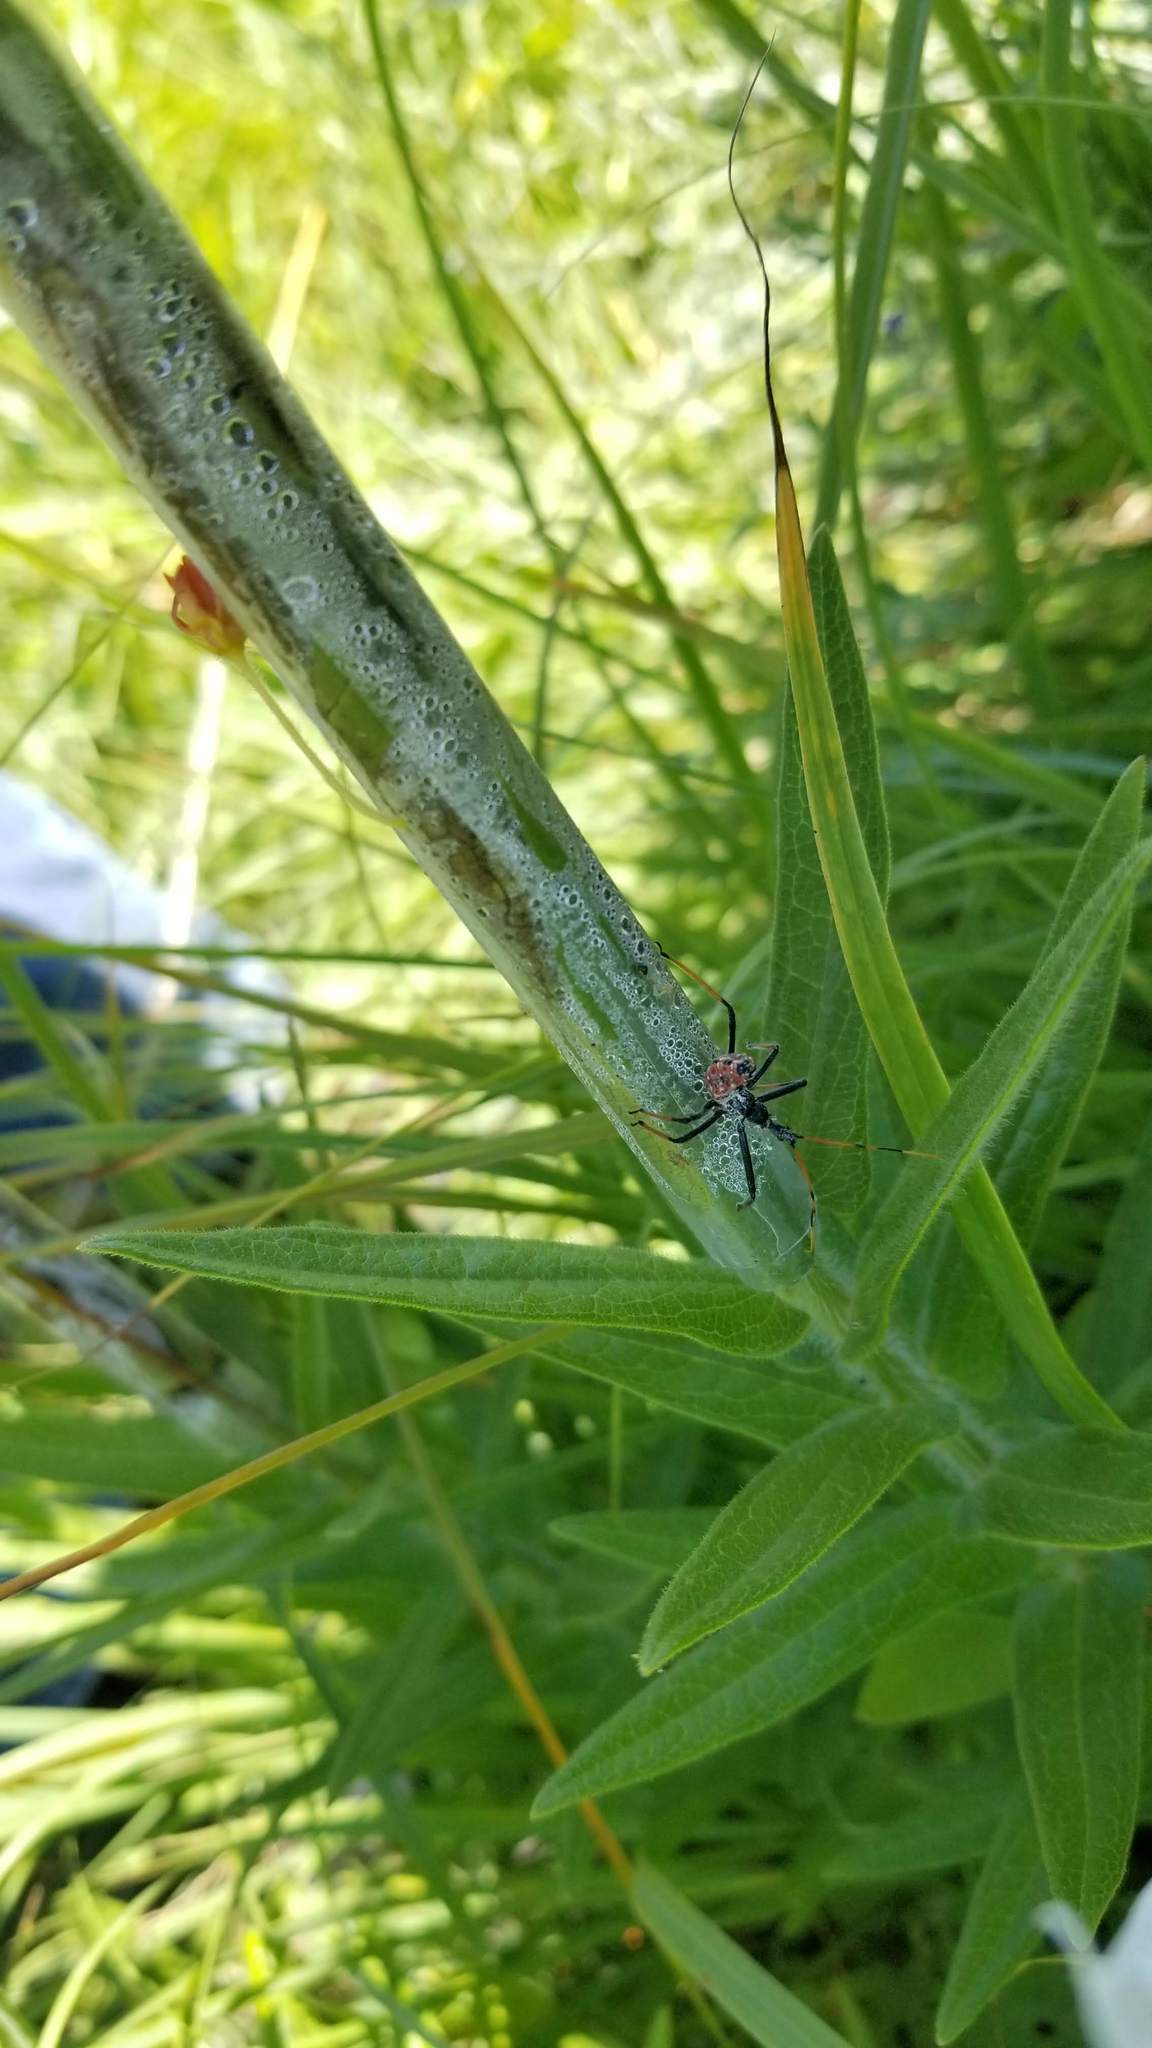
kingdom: Animalia
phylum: Arthropoda
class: Insecta
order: Hemiptera
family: Reduviidae
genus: Arilus
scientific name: Arilus cristatus
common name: North american wheel bug
